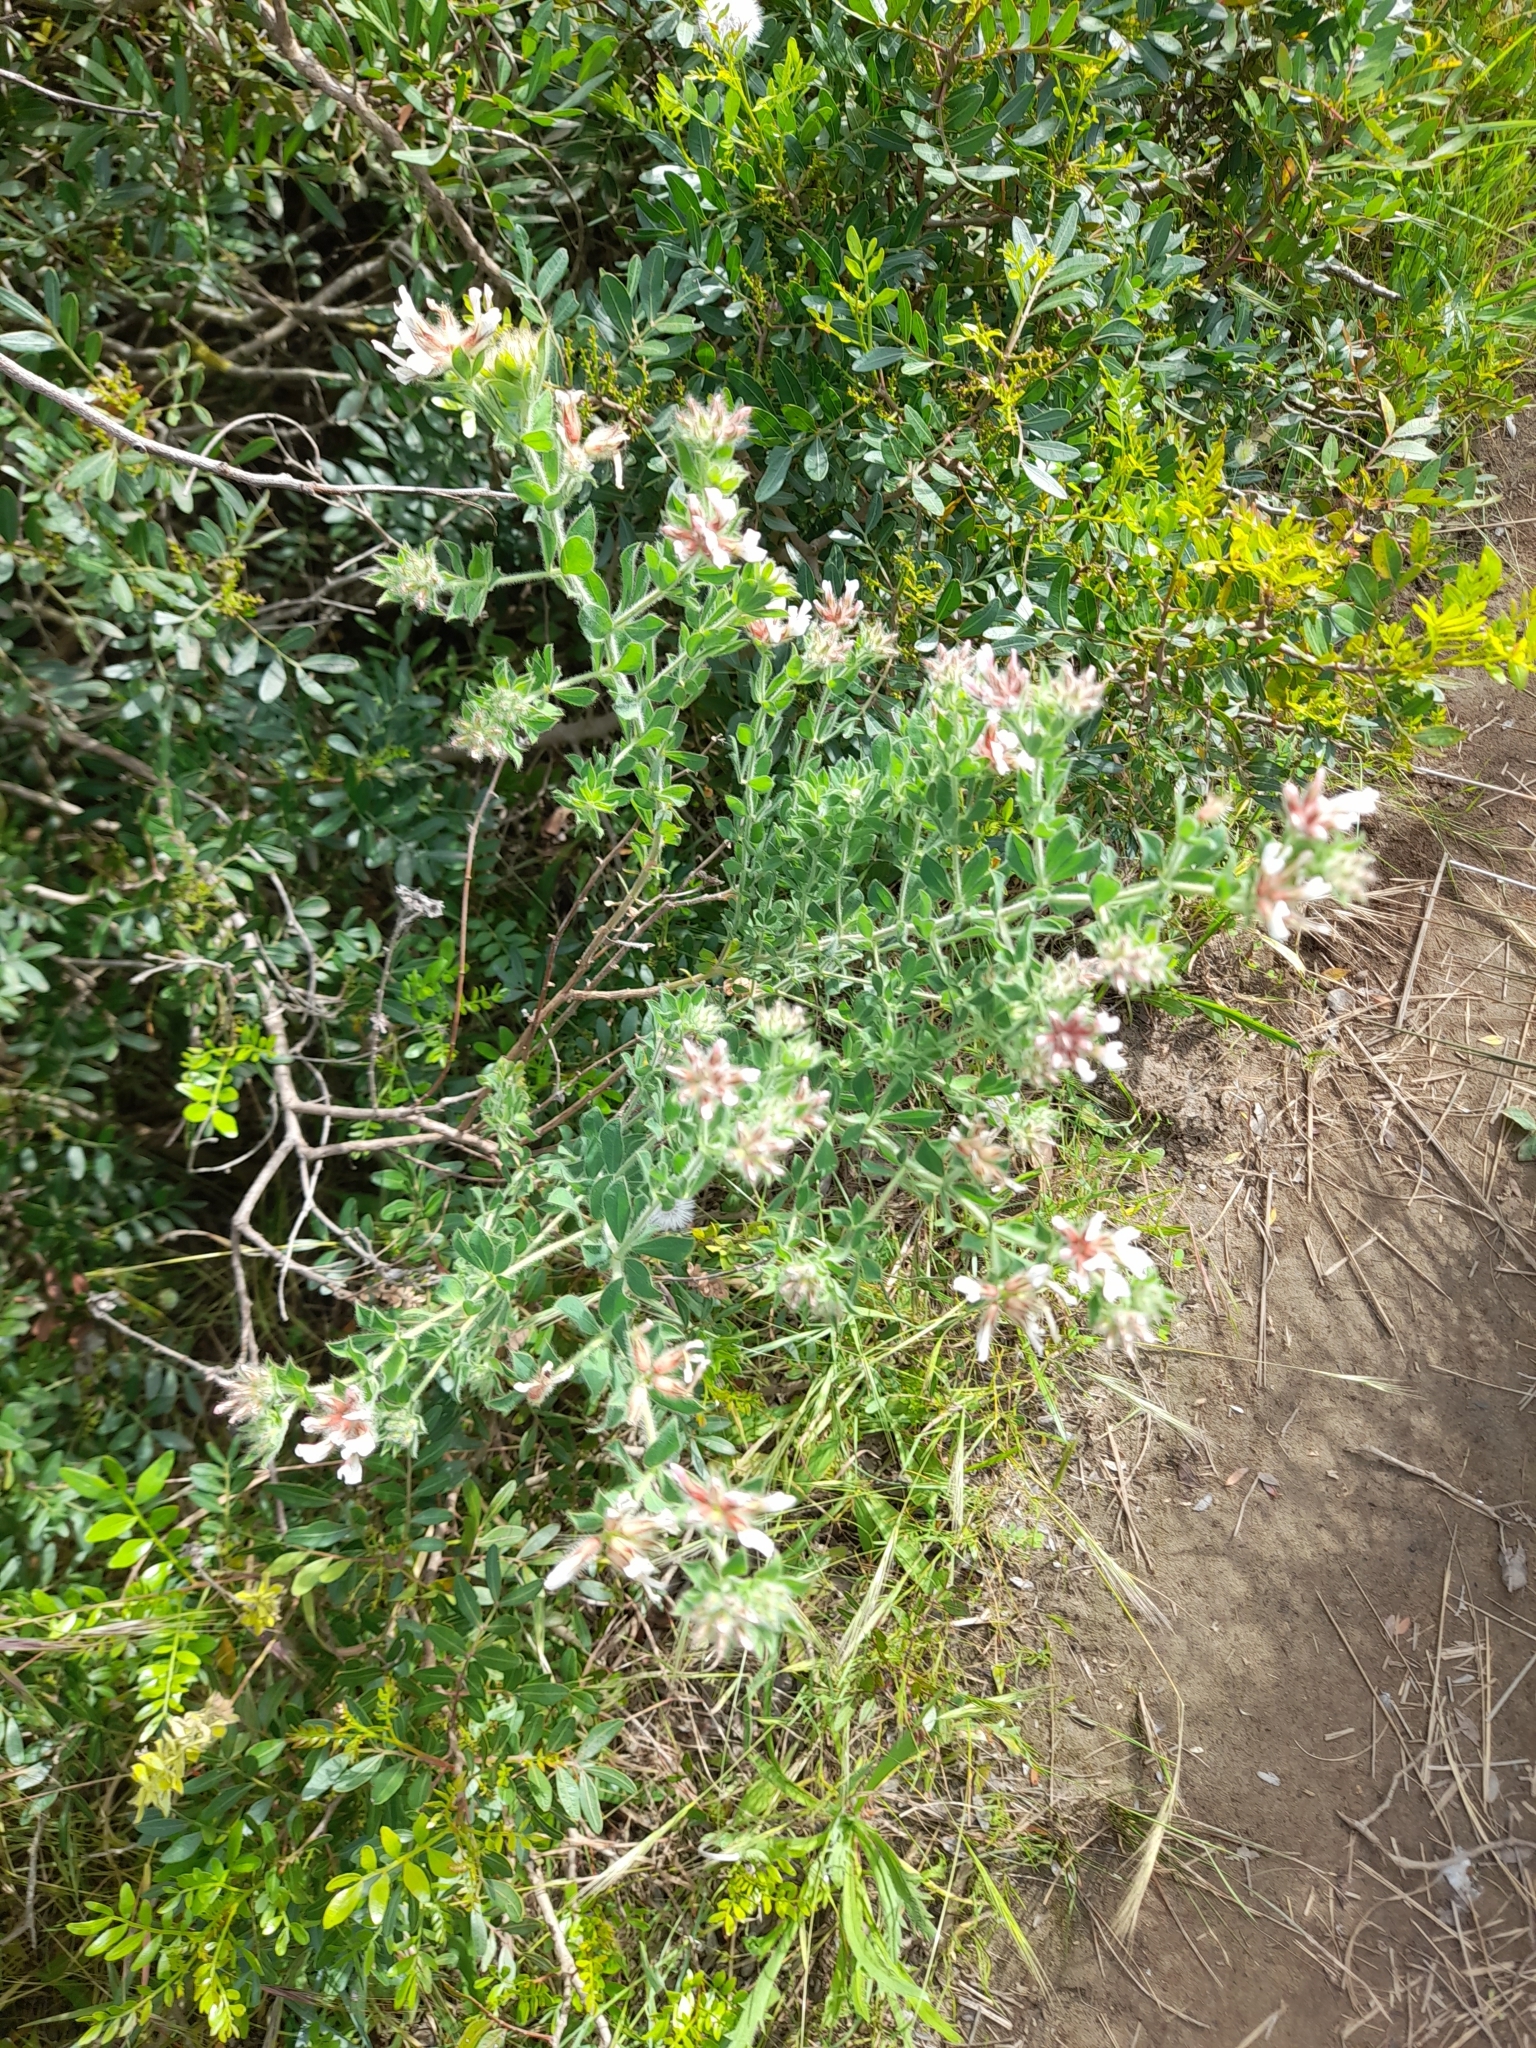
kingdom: Plantae
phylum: Tracheophyta
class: Magnoliopsida
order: Fabales
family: Fabaceae
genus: Lotus
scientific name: Lotus hirsutus
